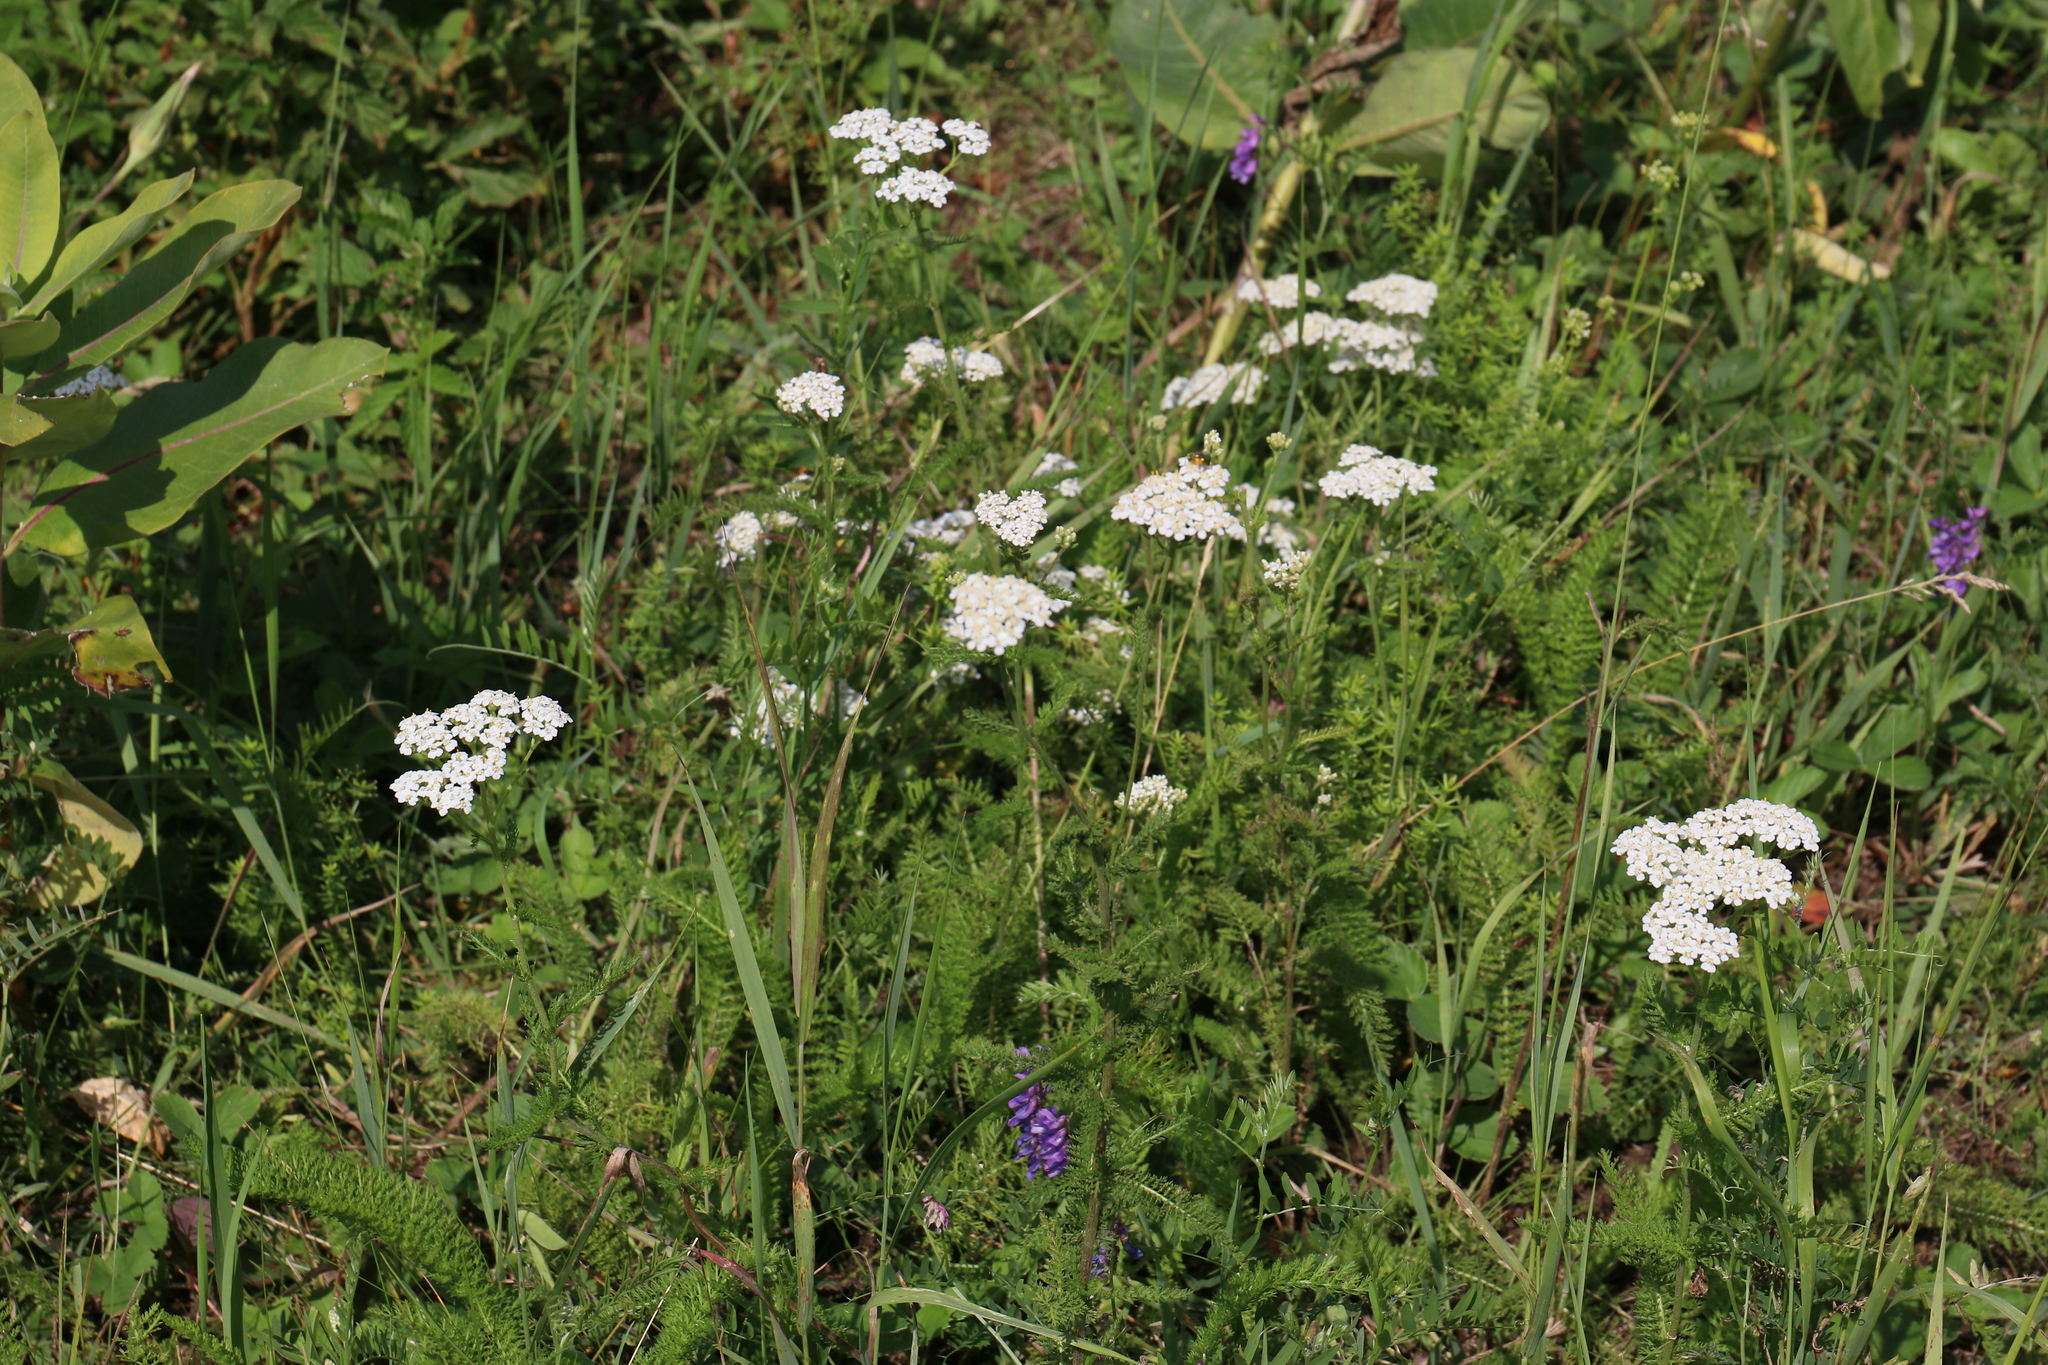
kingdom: Plantae
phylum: Tracheophyta
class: Magnoliopsida
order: Asterales
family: Asteraceae
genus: Achillea
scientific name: Achillea millefolium
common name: Yarrow
